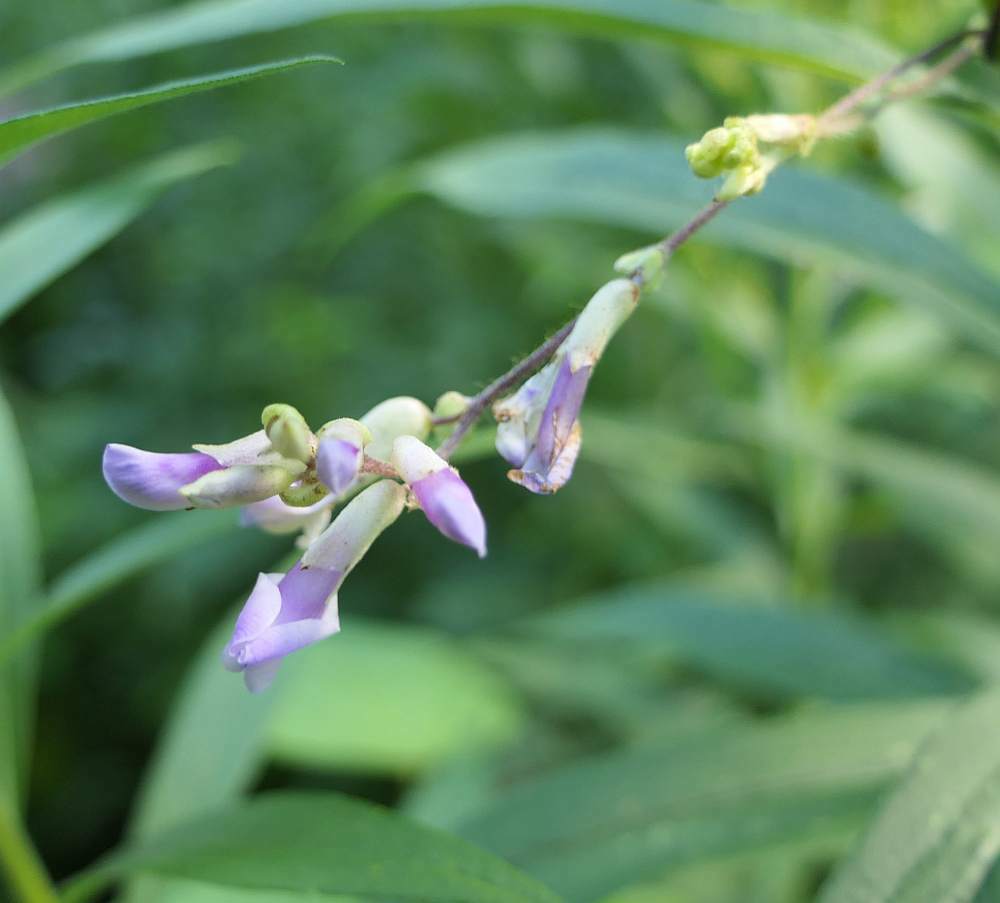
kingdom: Plantae
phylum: Tracheophyta
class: Magnoliopsida
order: Fabales
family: Fabaceae
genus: Amphicarpaea
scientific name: Amphicarpaea bracteata
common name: American hog peanut
